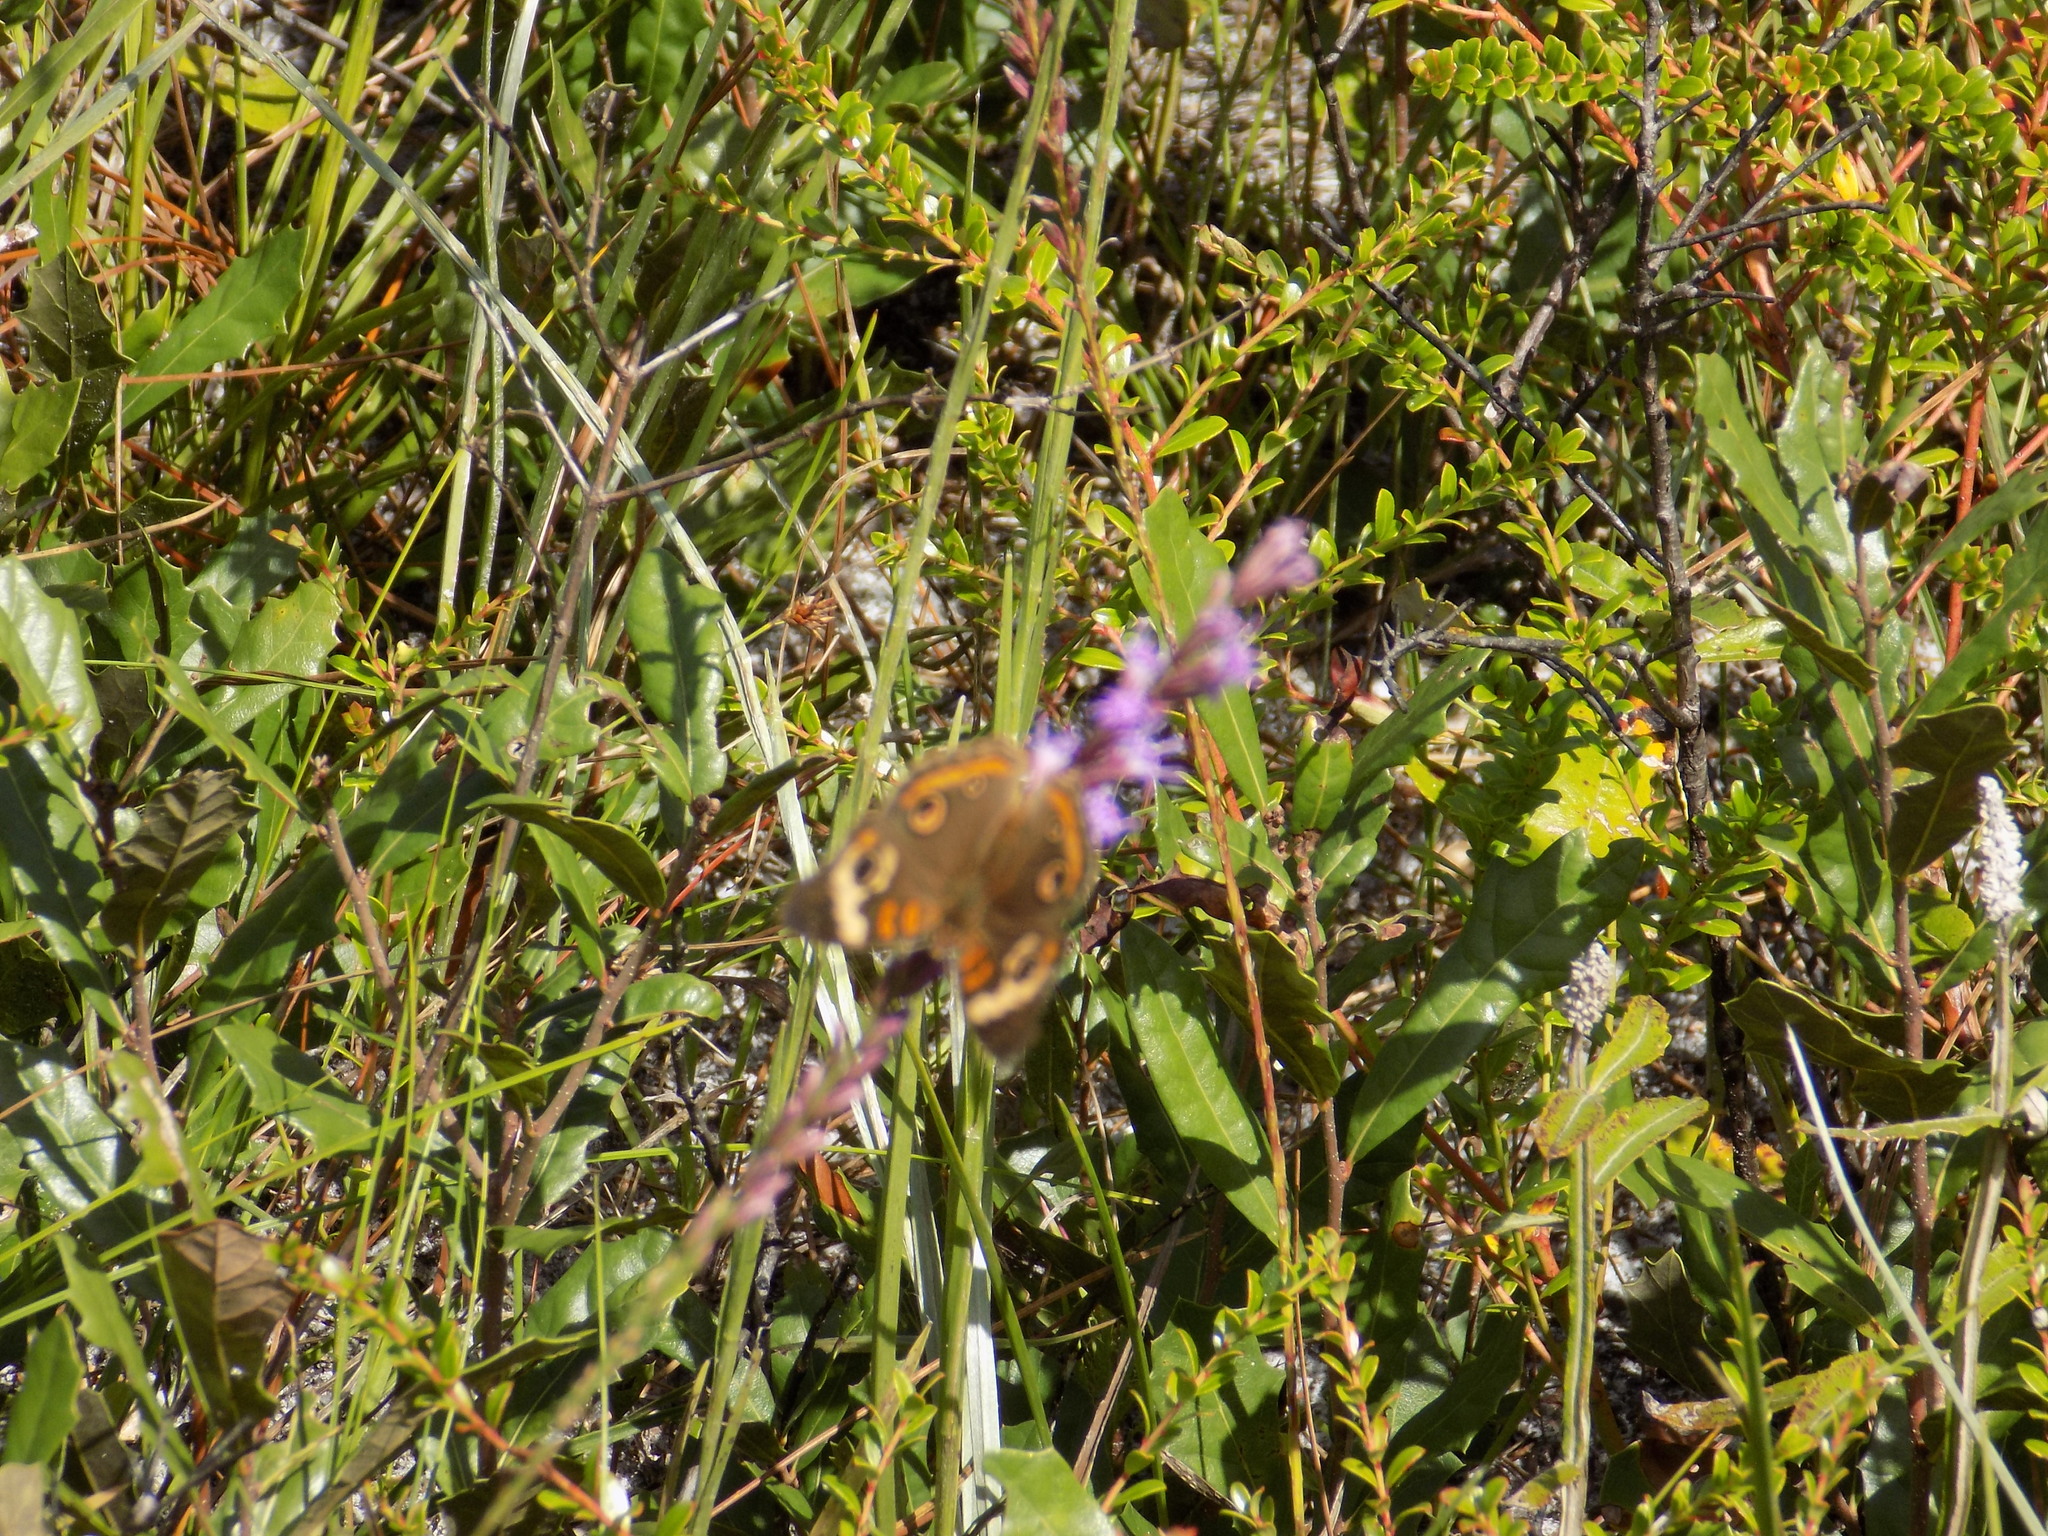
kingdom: Animalia
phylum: Arthropoda
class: Insecta
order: Lepidoptera
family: Nymphalidae
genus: Junonia
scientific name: Junonia coenia
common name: Common buckeye
